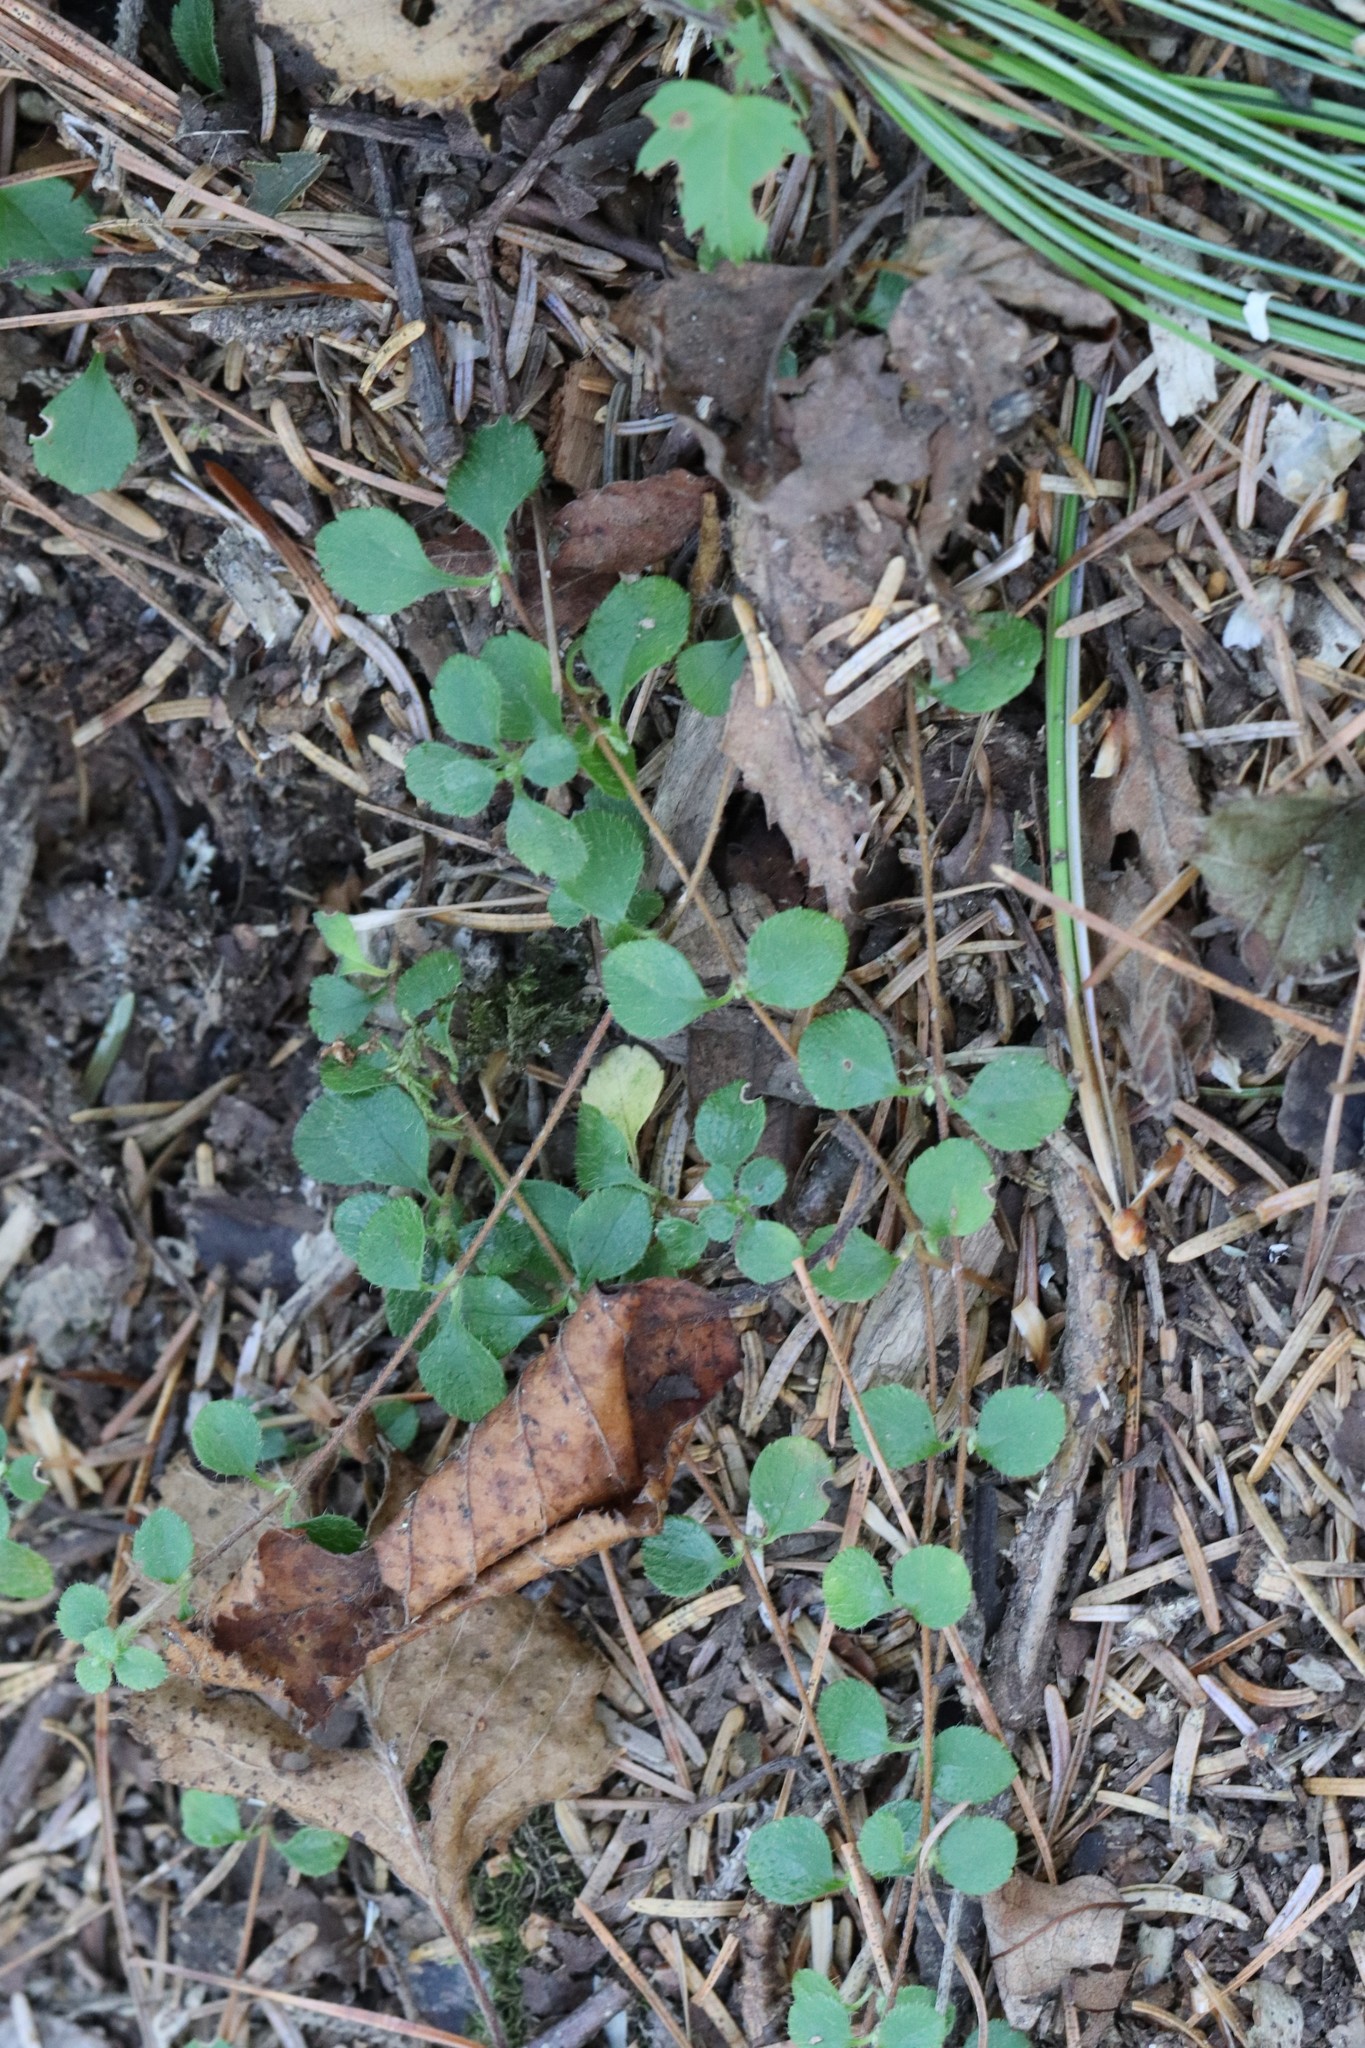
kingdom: Plantae
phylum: Tracheophyta
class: Magnoliopsida
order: Dipsacales
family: Caprifoliaceae
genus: Linnaea
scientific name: Linnaea borealis
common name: Twinflower
